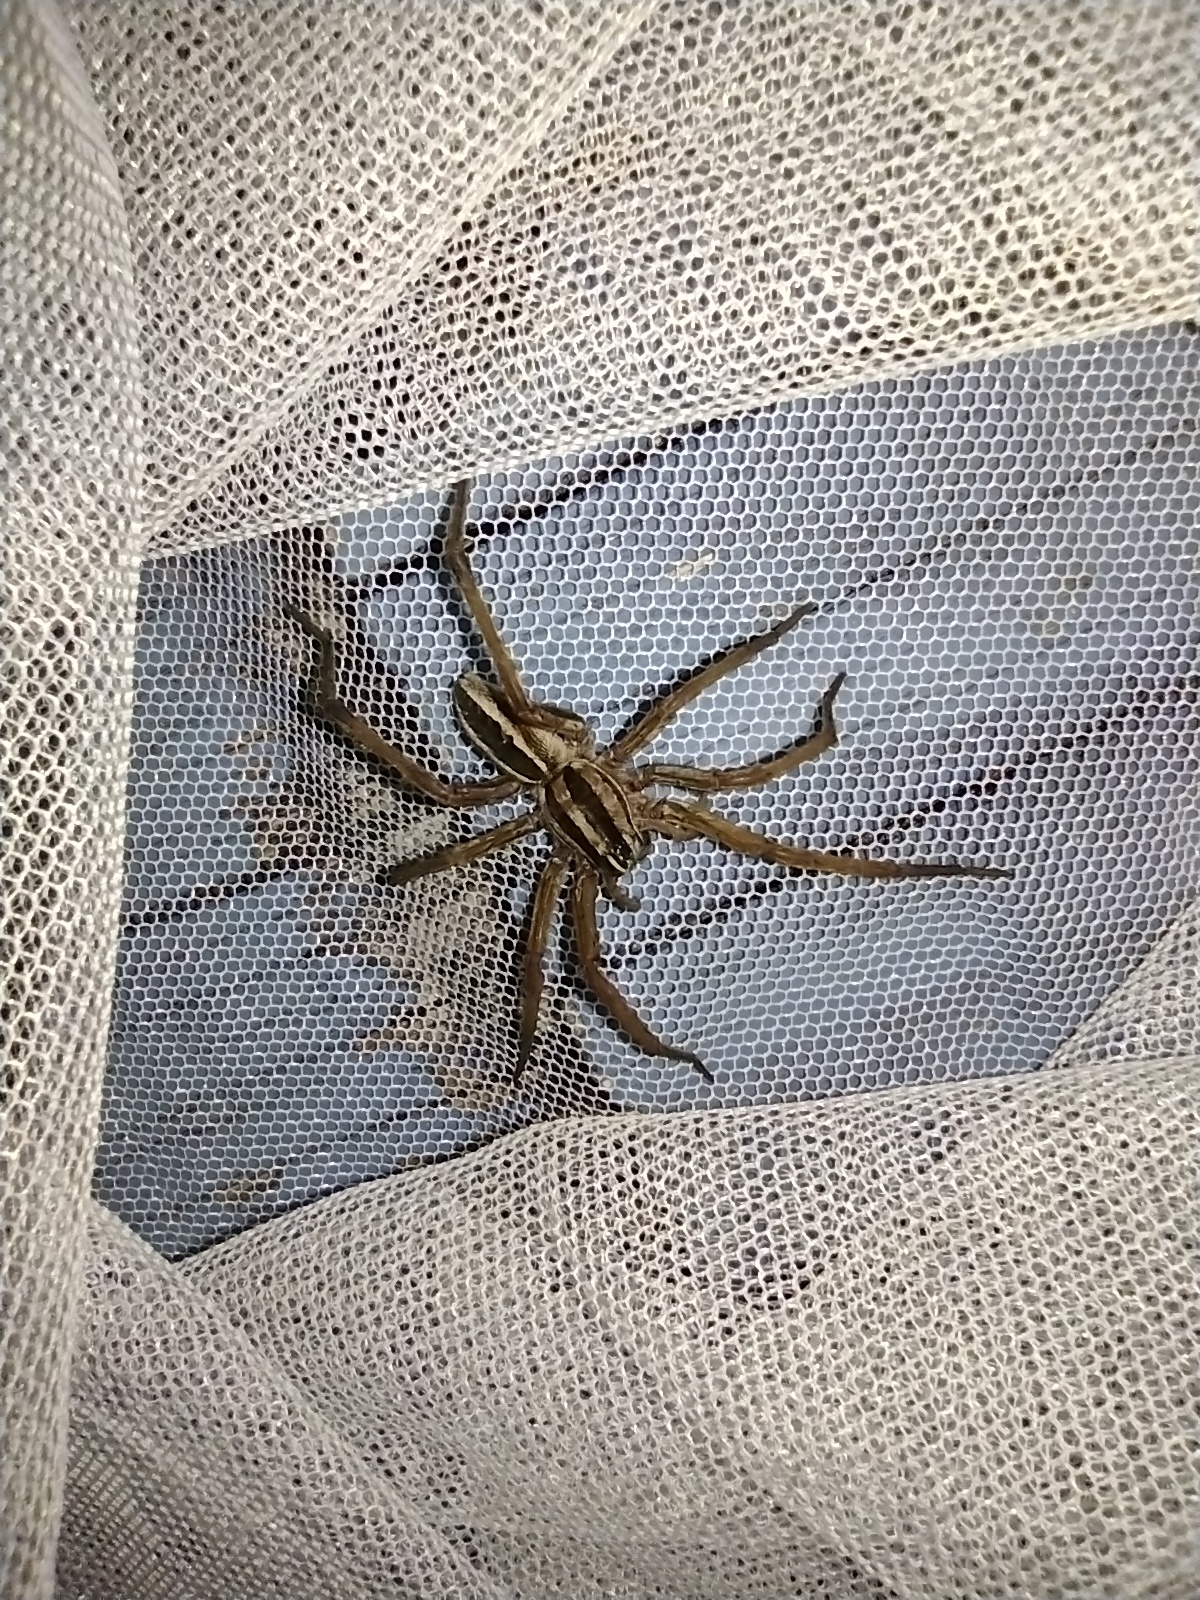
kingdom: Animalia
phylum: Arthropoda
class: Arachnida
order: Araneae
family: Lycosidae
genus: Rabidosa
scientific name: Rabidosa rabida
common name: Rabid wolf spider
